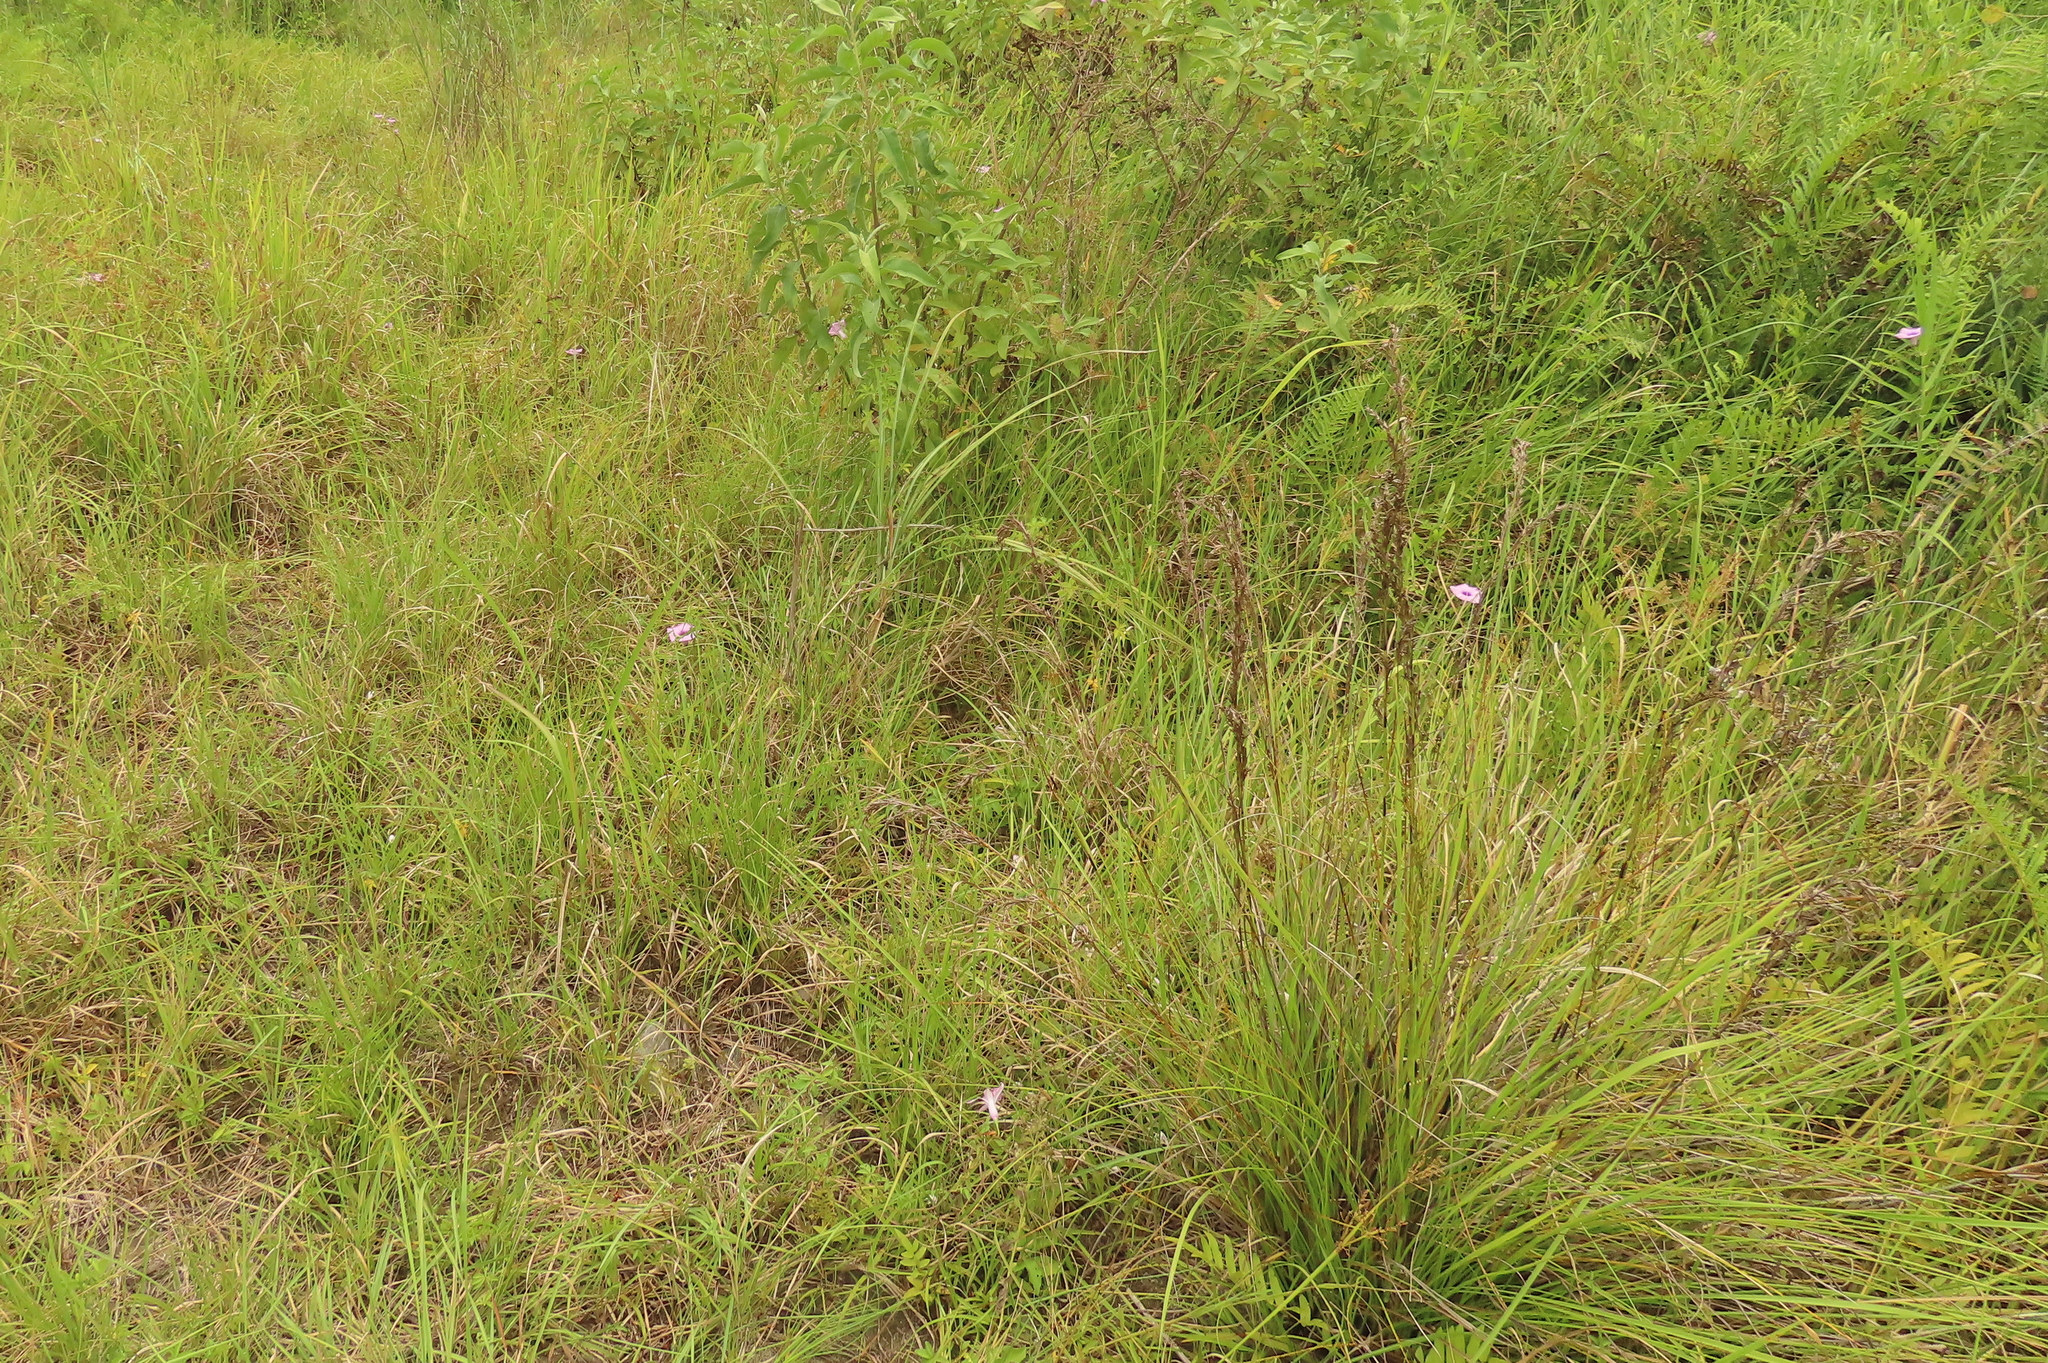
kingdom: Plantae
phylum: Tracheophyta
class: Liliopsida
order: Poales
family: Cyperaceae
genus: Schoenus
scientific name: Schoenus falcatus
